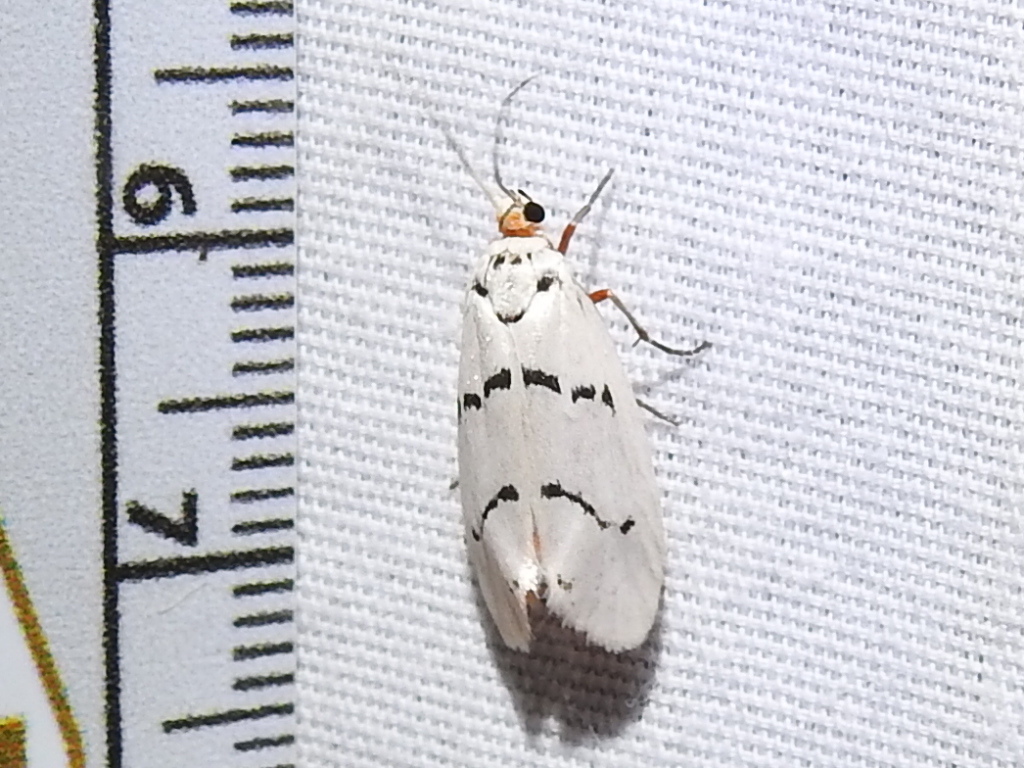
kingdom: Animalia
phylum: Arthropoda
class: Insecta
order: Lepidoptera
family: Lacturidae
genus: Lactura
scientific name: Lactura
